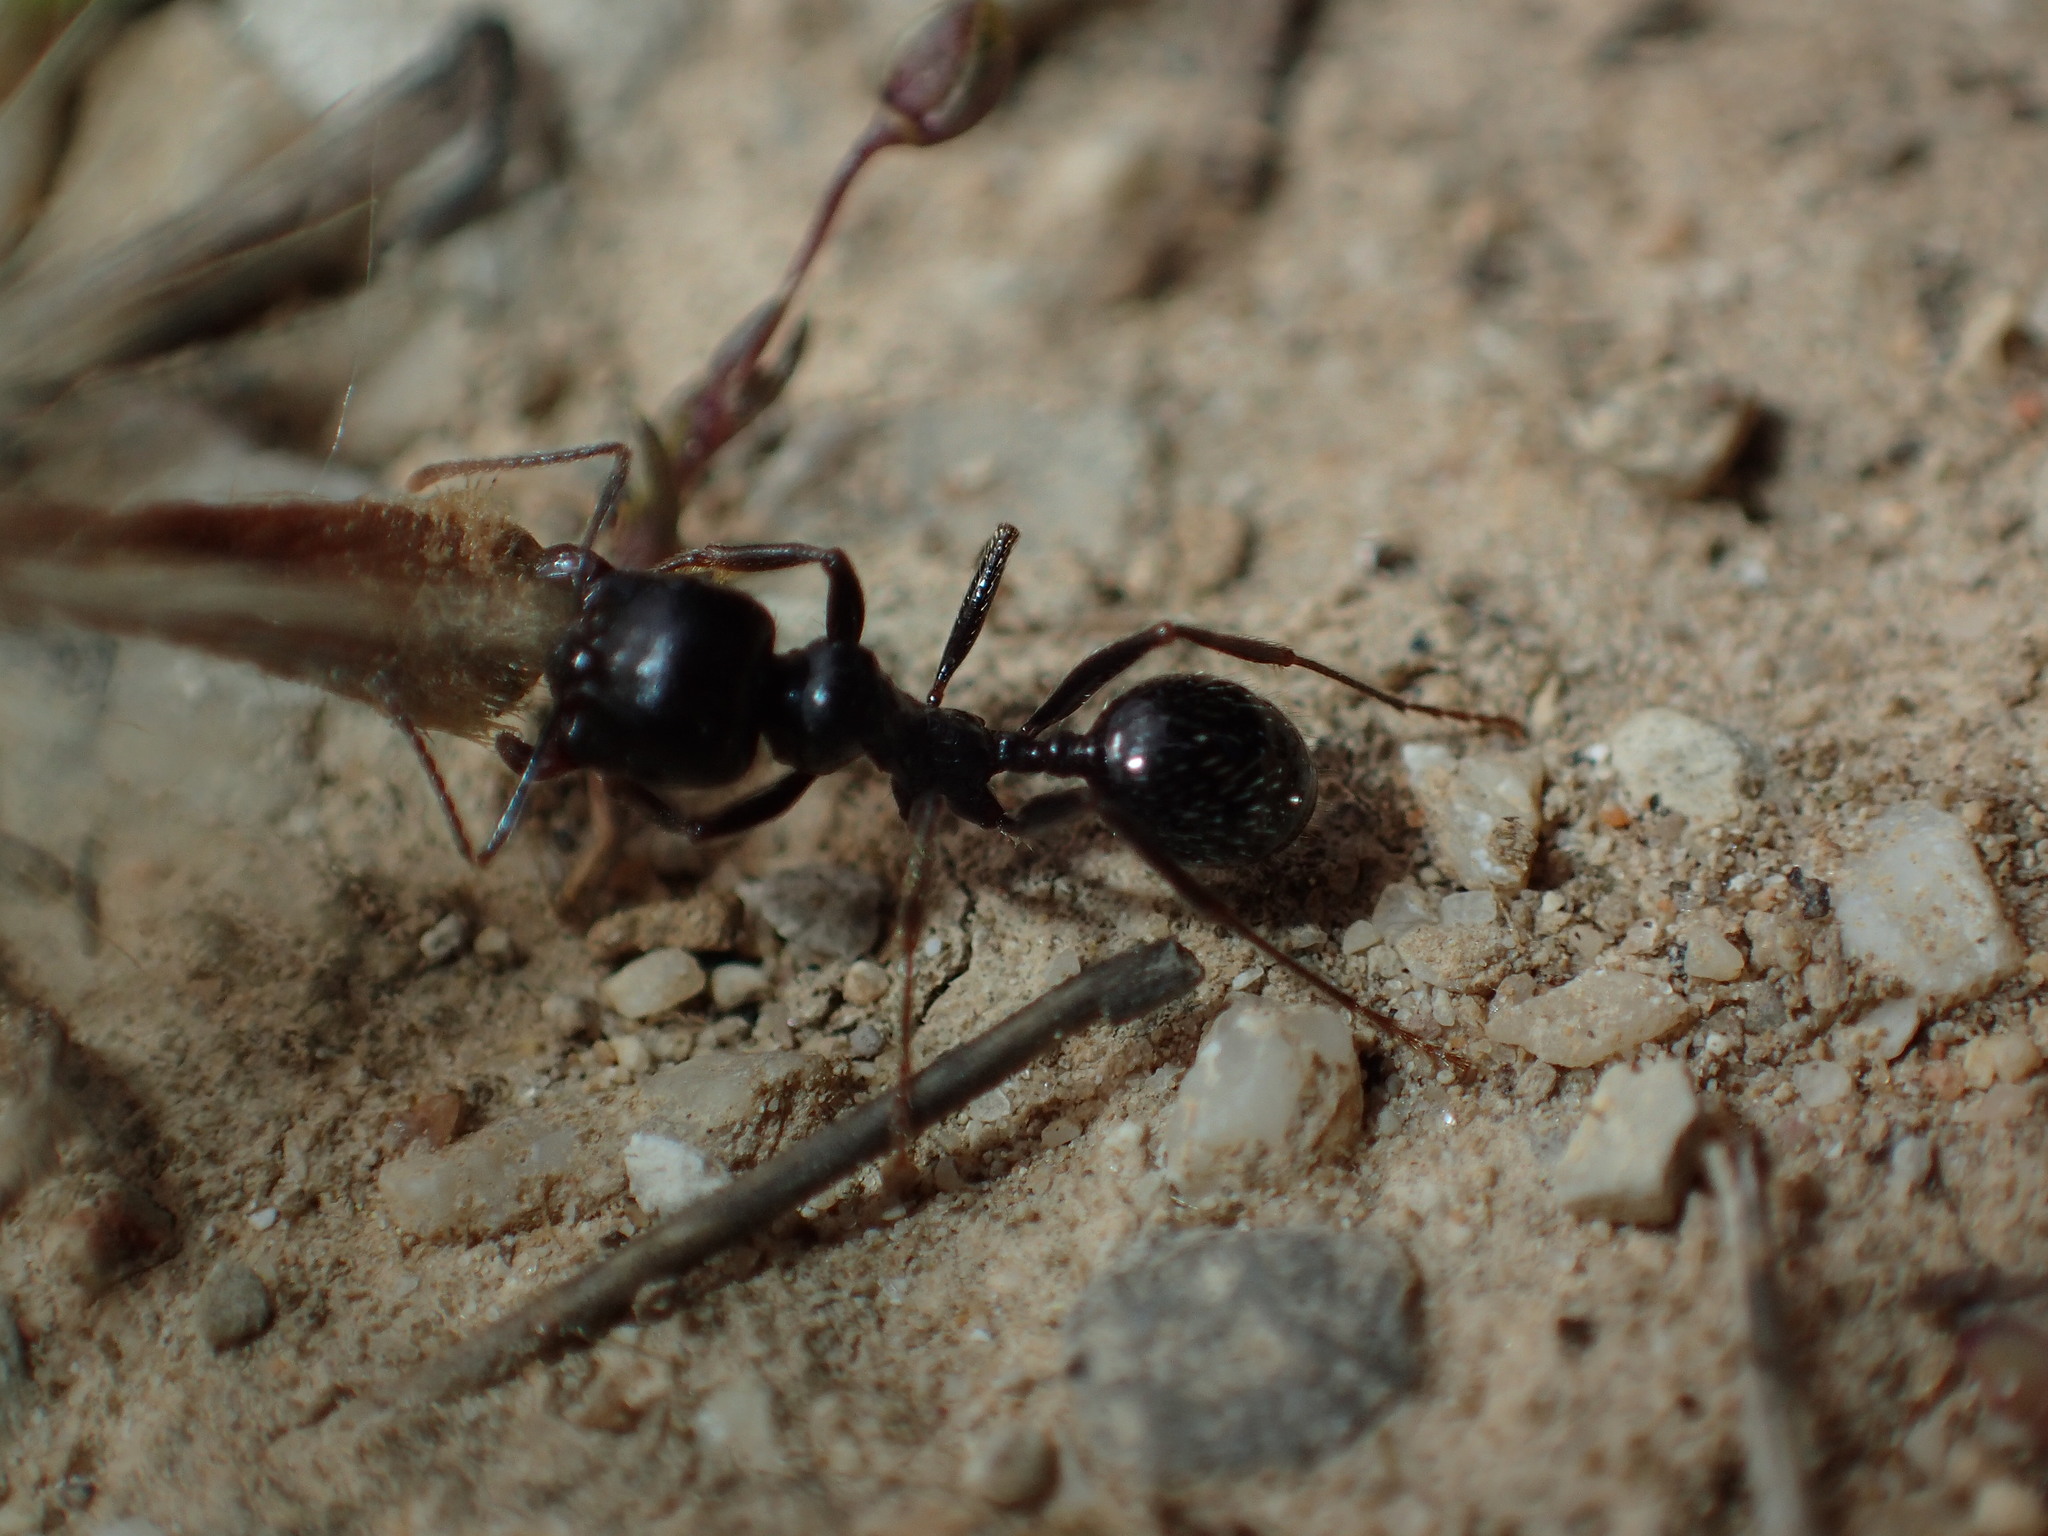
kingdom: Animalia
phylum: Arthropoda
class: Insecta
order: Hymenoptera
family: Formicidae
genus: Messor
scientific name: Messor barbarus
